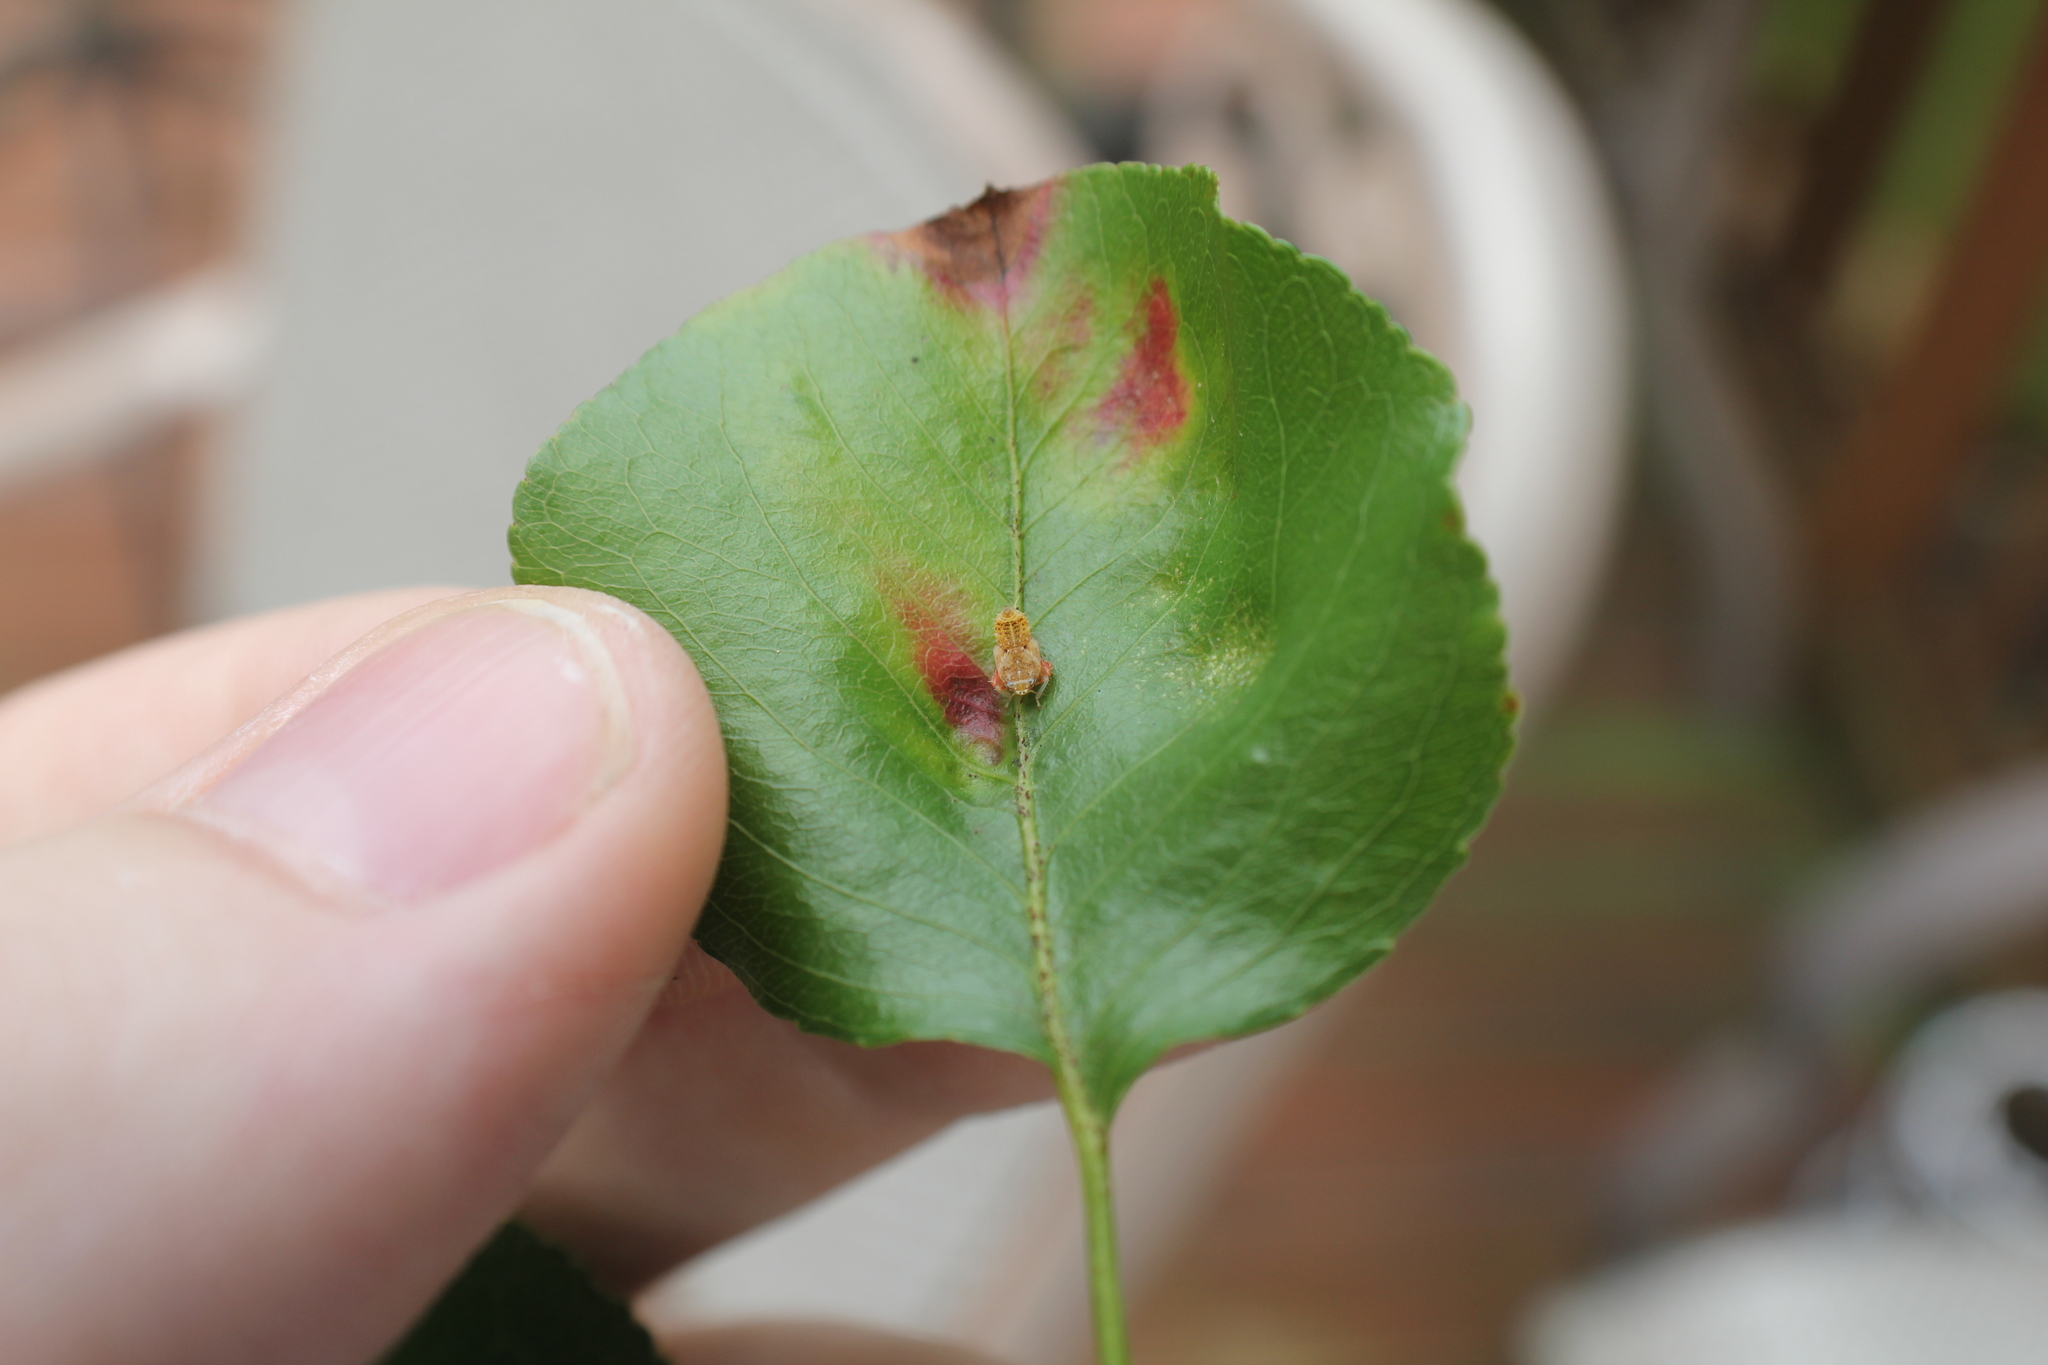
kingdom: Animalia
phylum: Arthropoda
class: Insecta
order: Hemiptera
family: Cicadellidae
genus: Orientus
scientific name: Orientus ishidae
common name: Japanese leafhopper
